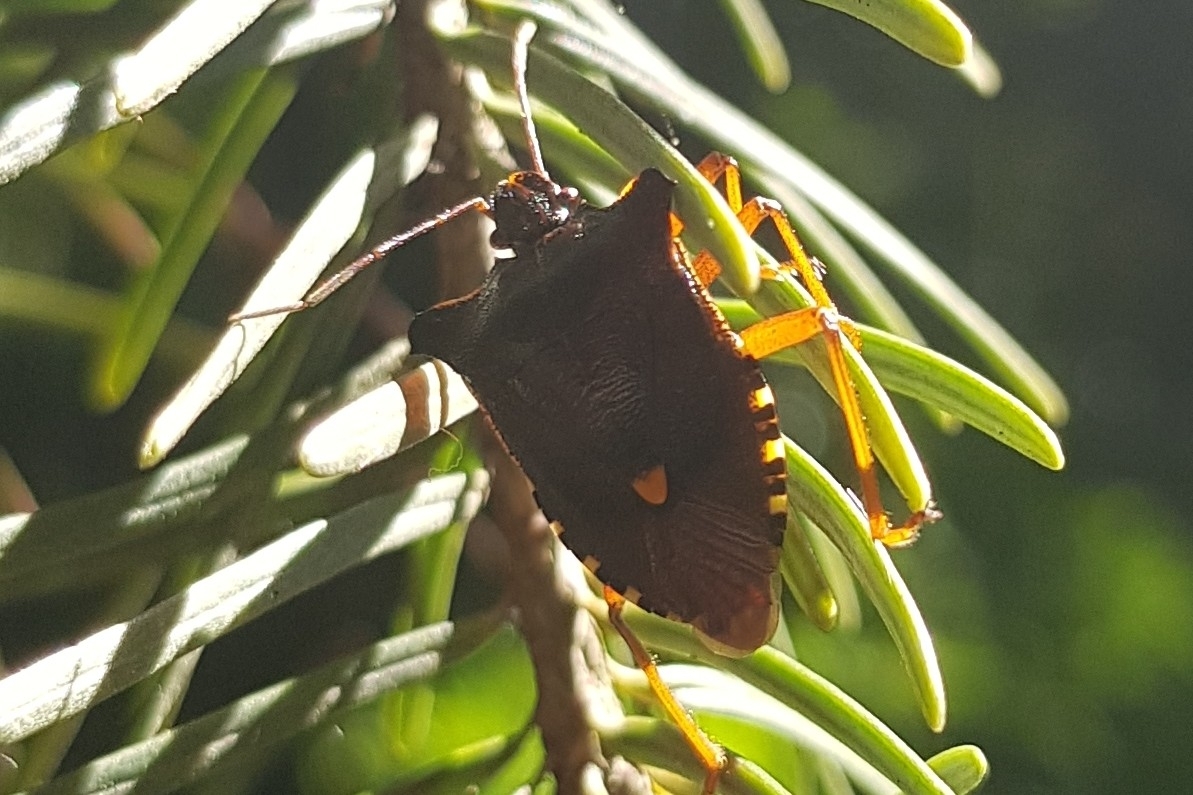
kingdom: Animalia
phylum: Arthropoda
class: Insecta
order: Hemiptera
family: Pentatomidae
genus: Pentatoma
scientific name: Pentatoma rufipes
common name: Forest bug
